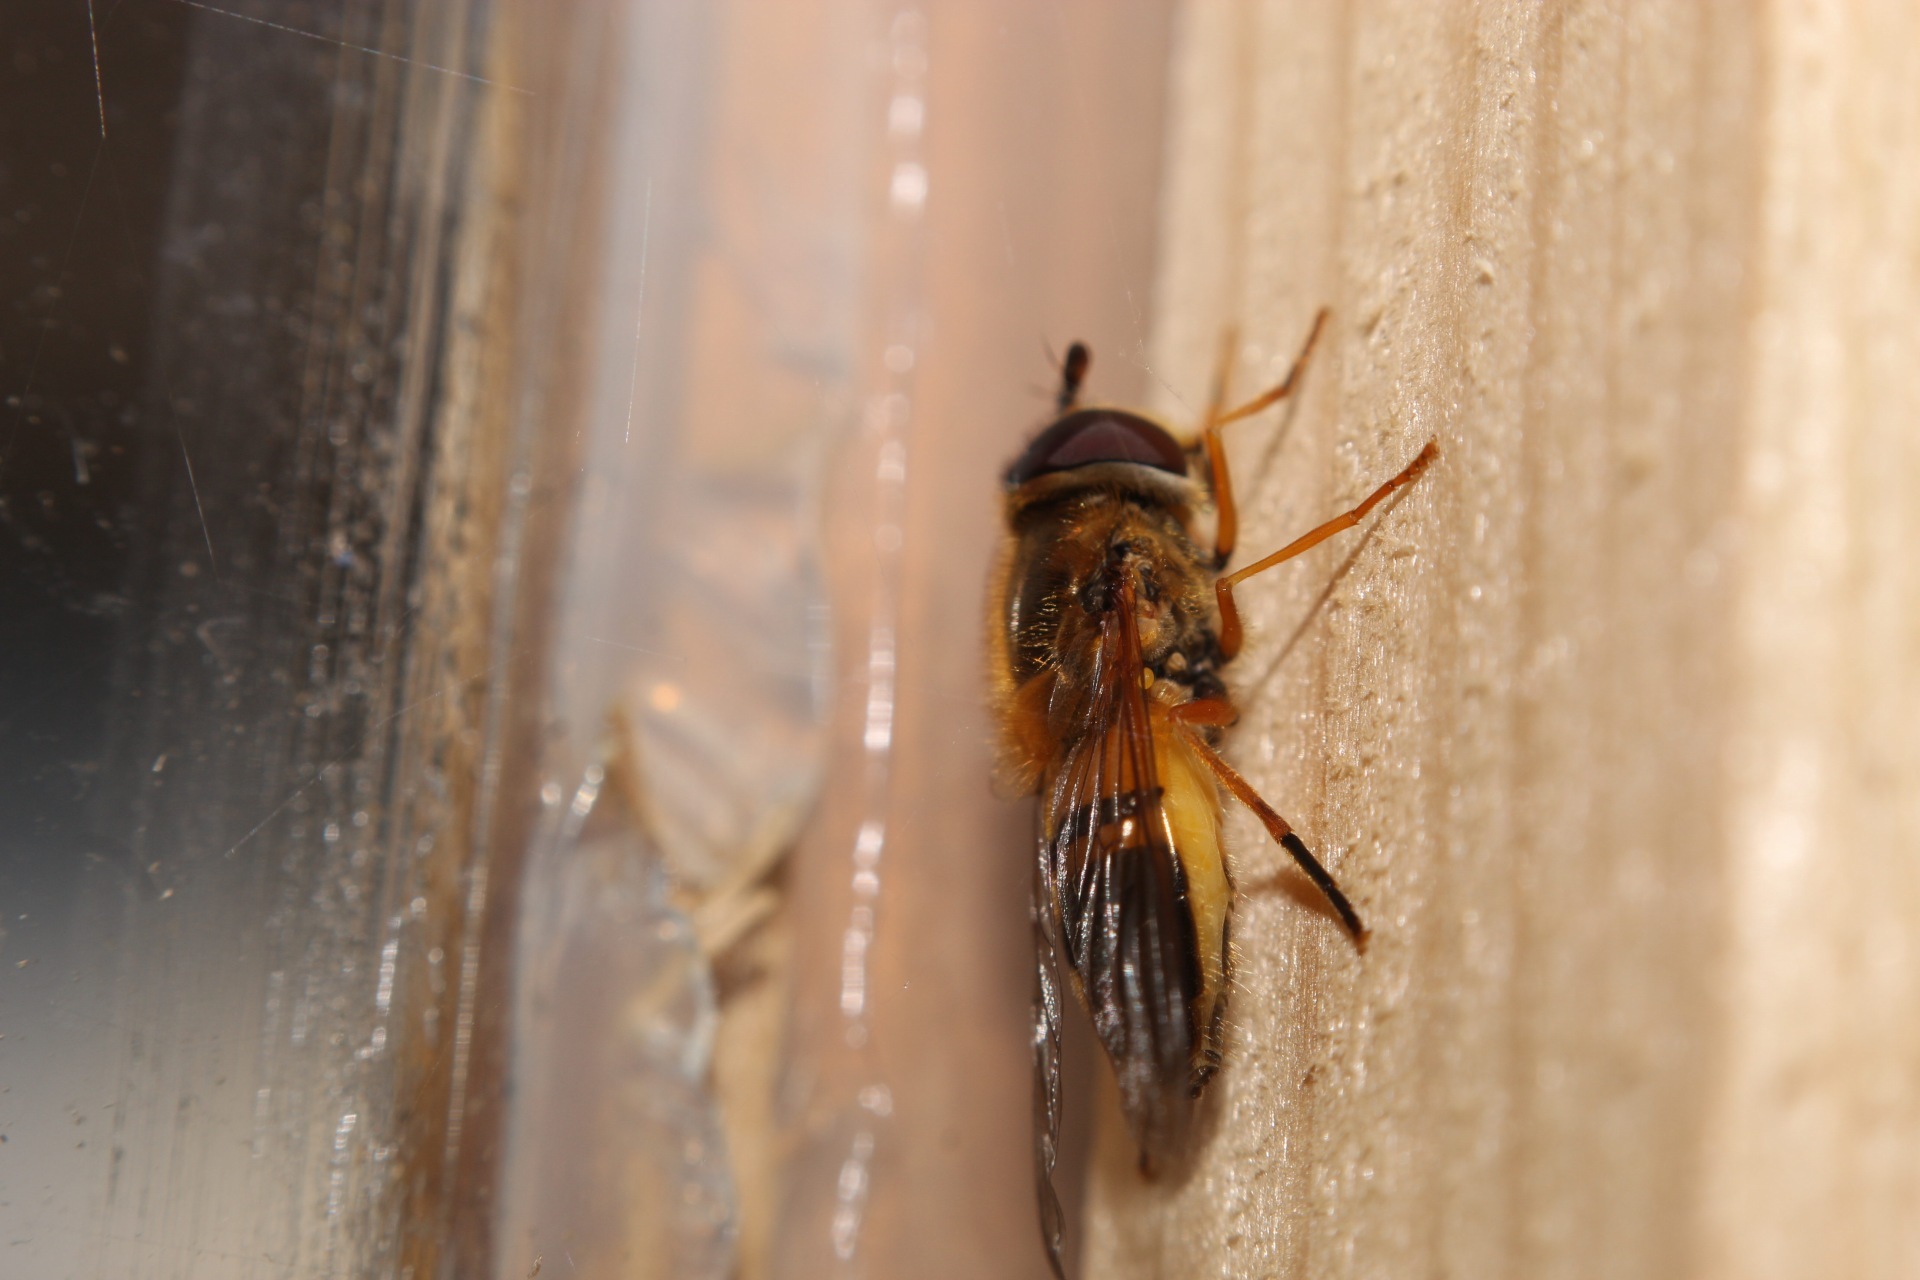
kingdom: Animalia
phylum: Arthropoda
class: Insecta
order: Diptera
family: Syrphidae
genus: Epistrophe
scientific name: Epistrophe eligans
